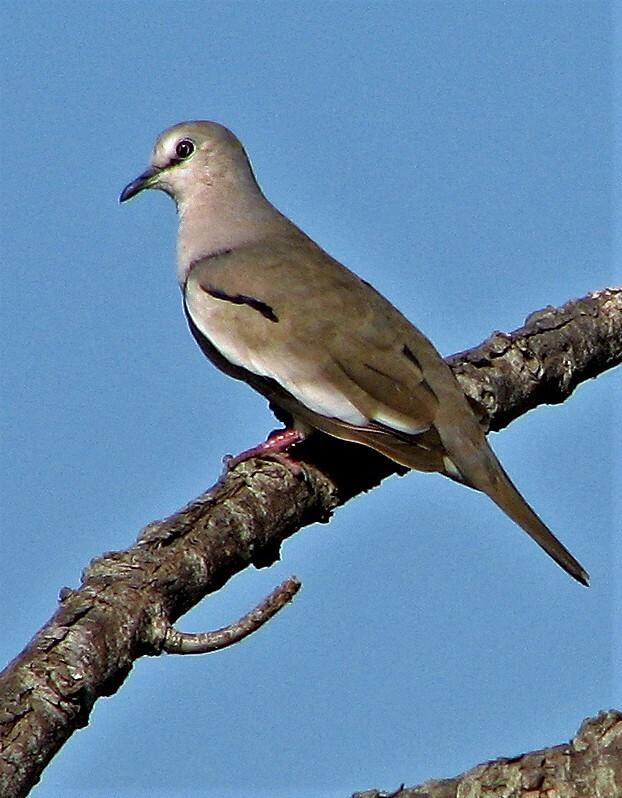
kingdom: Animalia
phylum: Chordata
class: Aves
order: Columbiformes
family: Columbidae
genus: Columbina
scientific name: Columbina picui
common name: Picui ground dove
